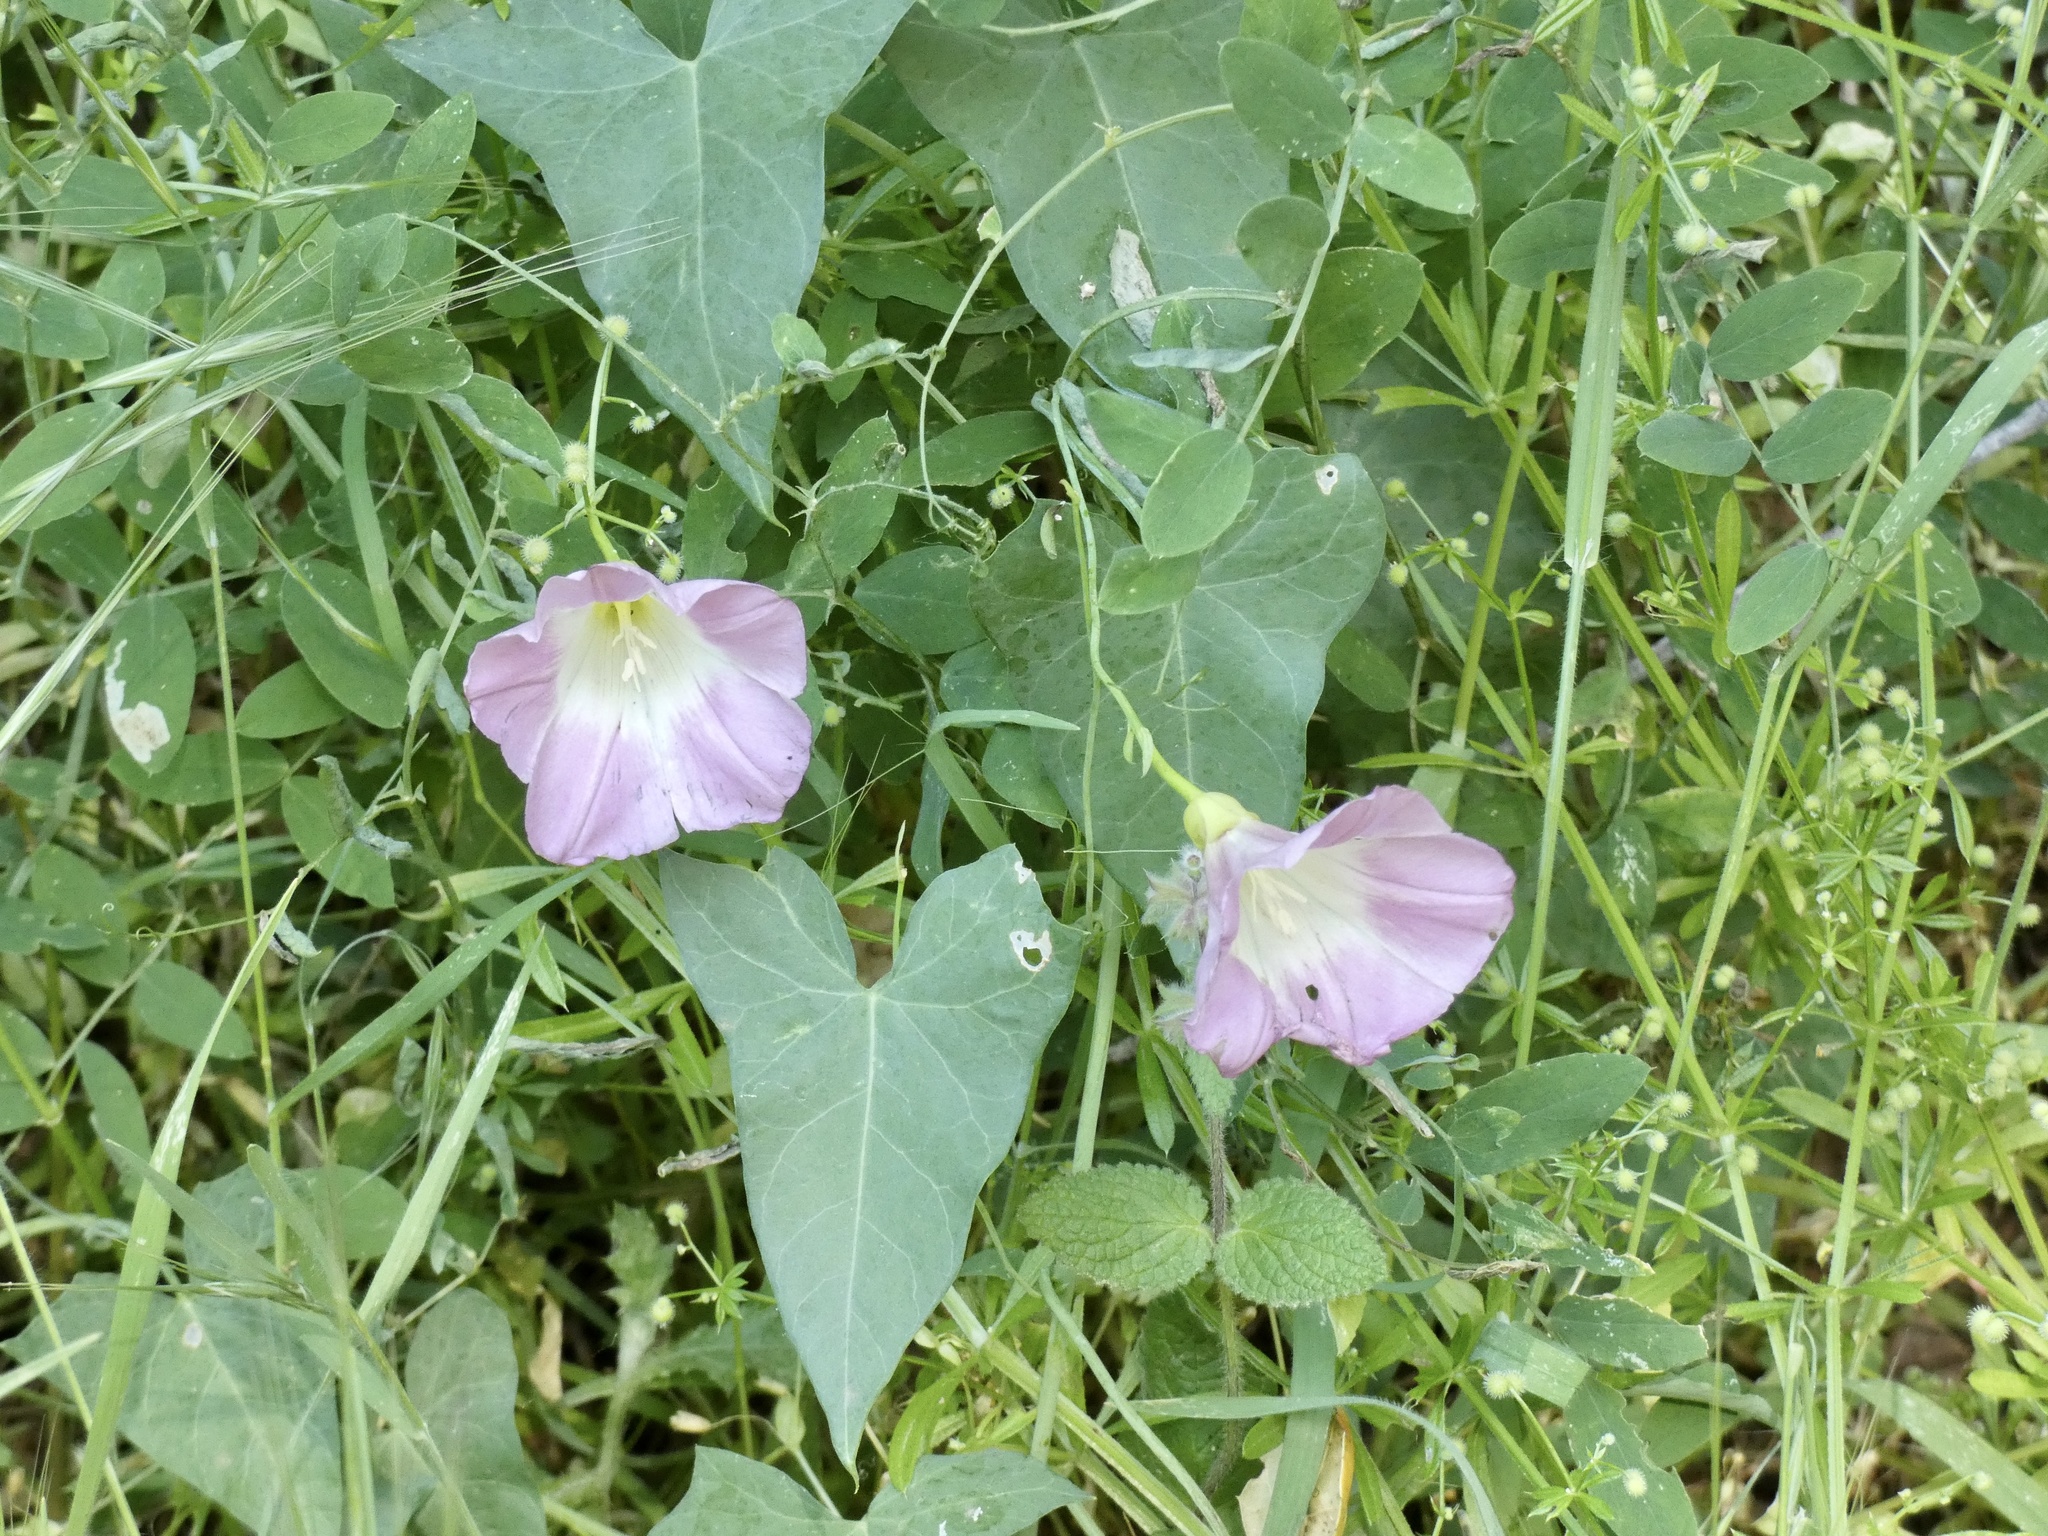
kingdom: Plantae
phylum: Tracheophyta
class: Magnoliopsida
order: Solanales
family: Convolvulaceae
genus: Calystegia
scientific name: Calystegia purpurata
